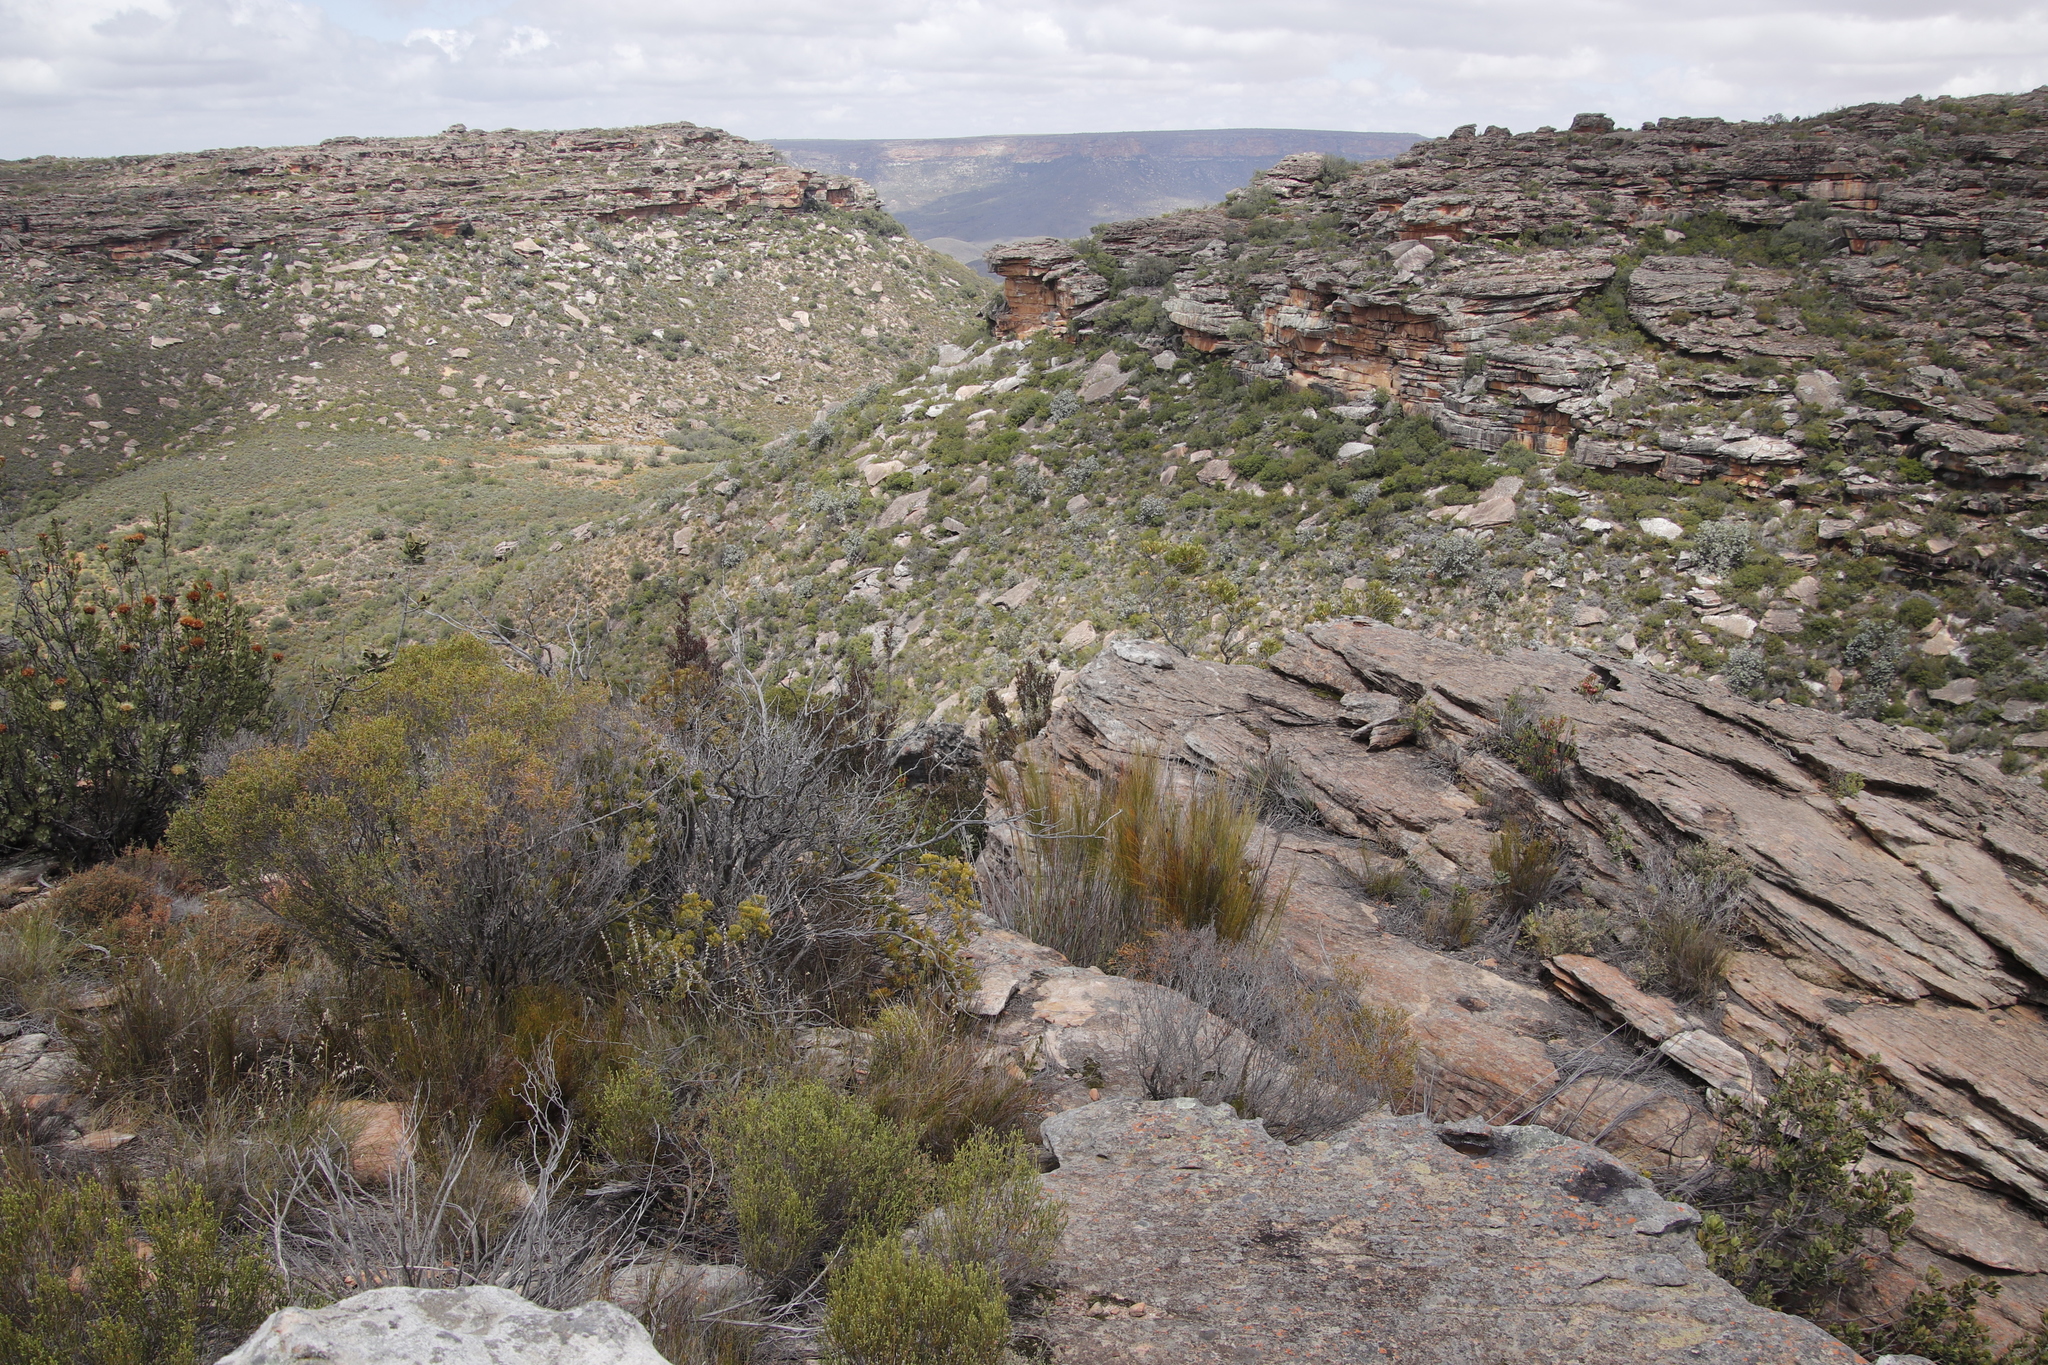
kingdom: Plantae
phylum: Tracheophyta
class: Magnoliopsida
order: Proteales
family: Proteaceae
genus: Protea
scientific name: Protea nitida
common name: Tree protea
